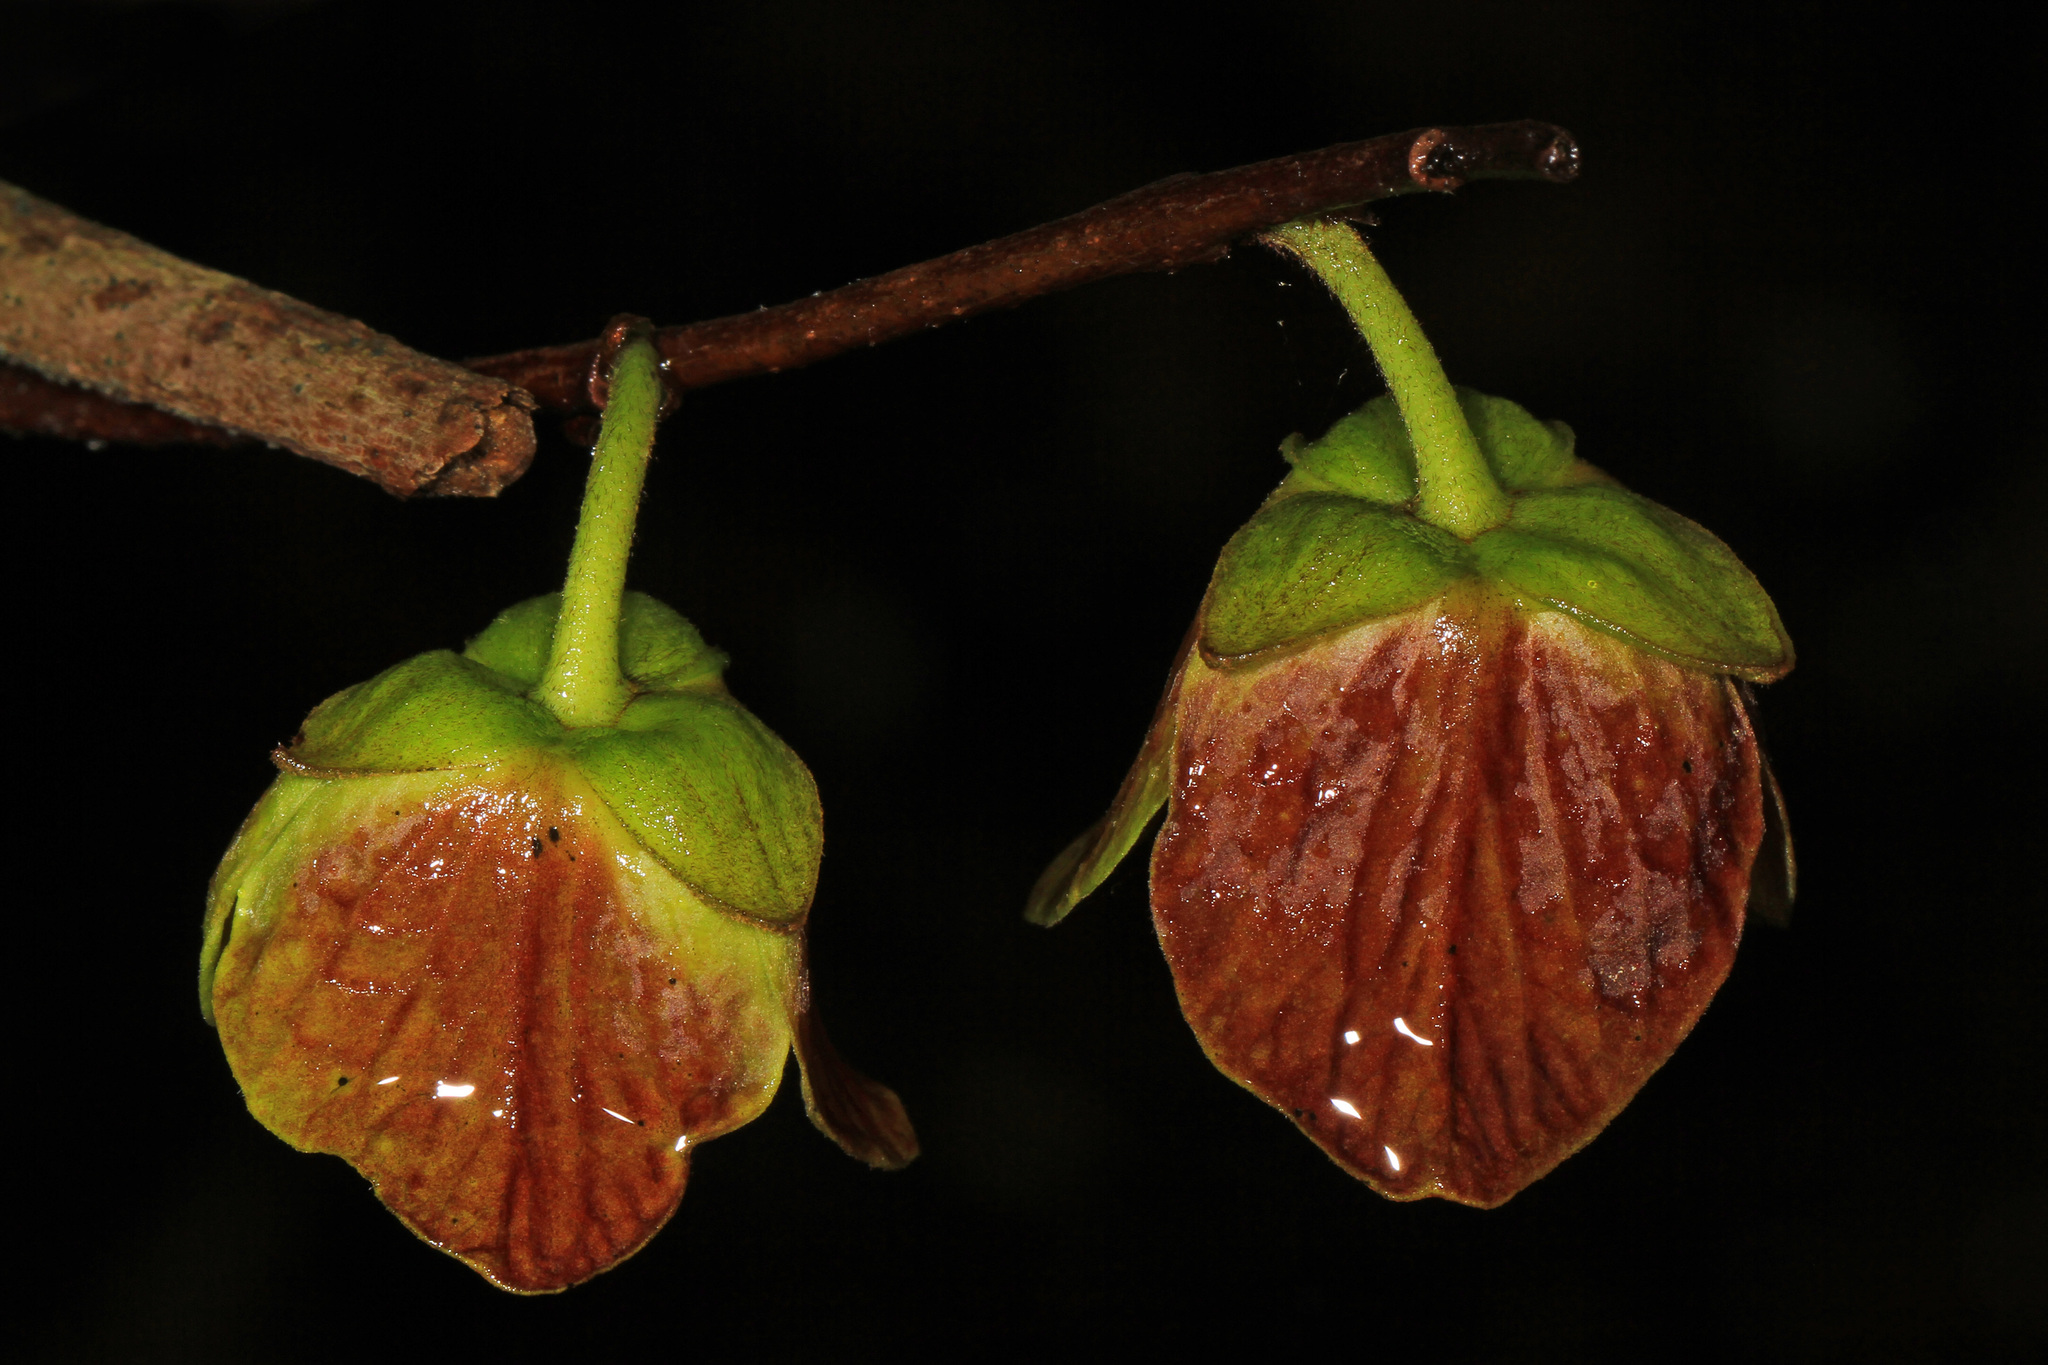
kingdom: Plantae
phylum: Tracheophyta
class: Magnoliopsida
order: Magnoliales
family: Annonaceae
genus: Asimina
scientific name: Asimina triloba
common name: Dog-banana
